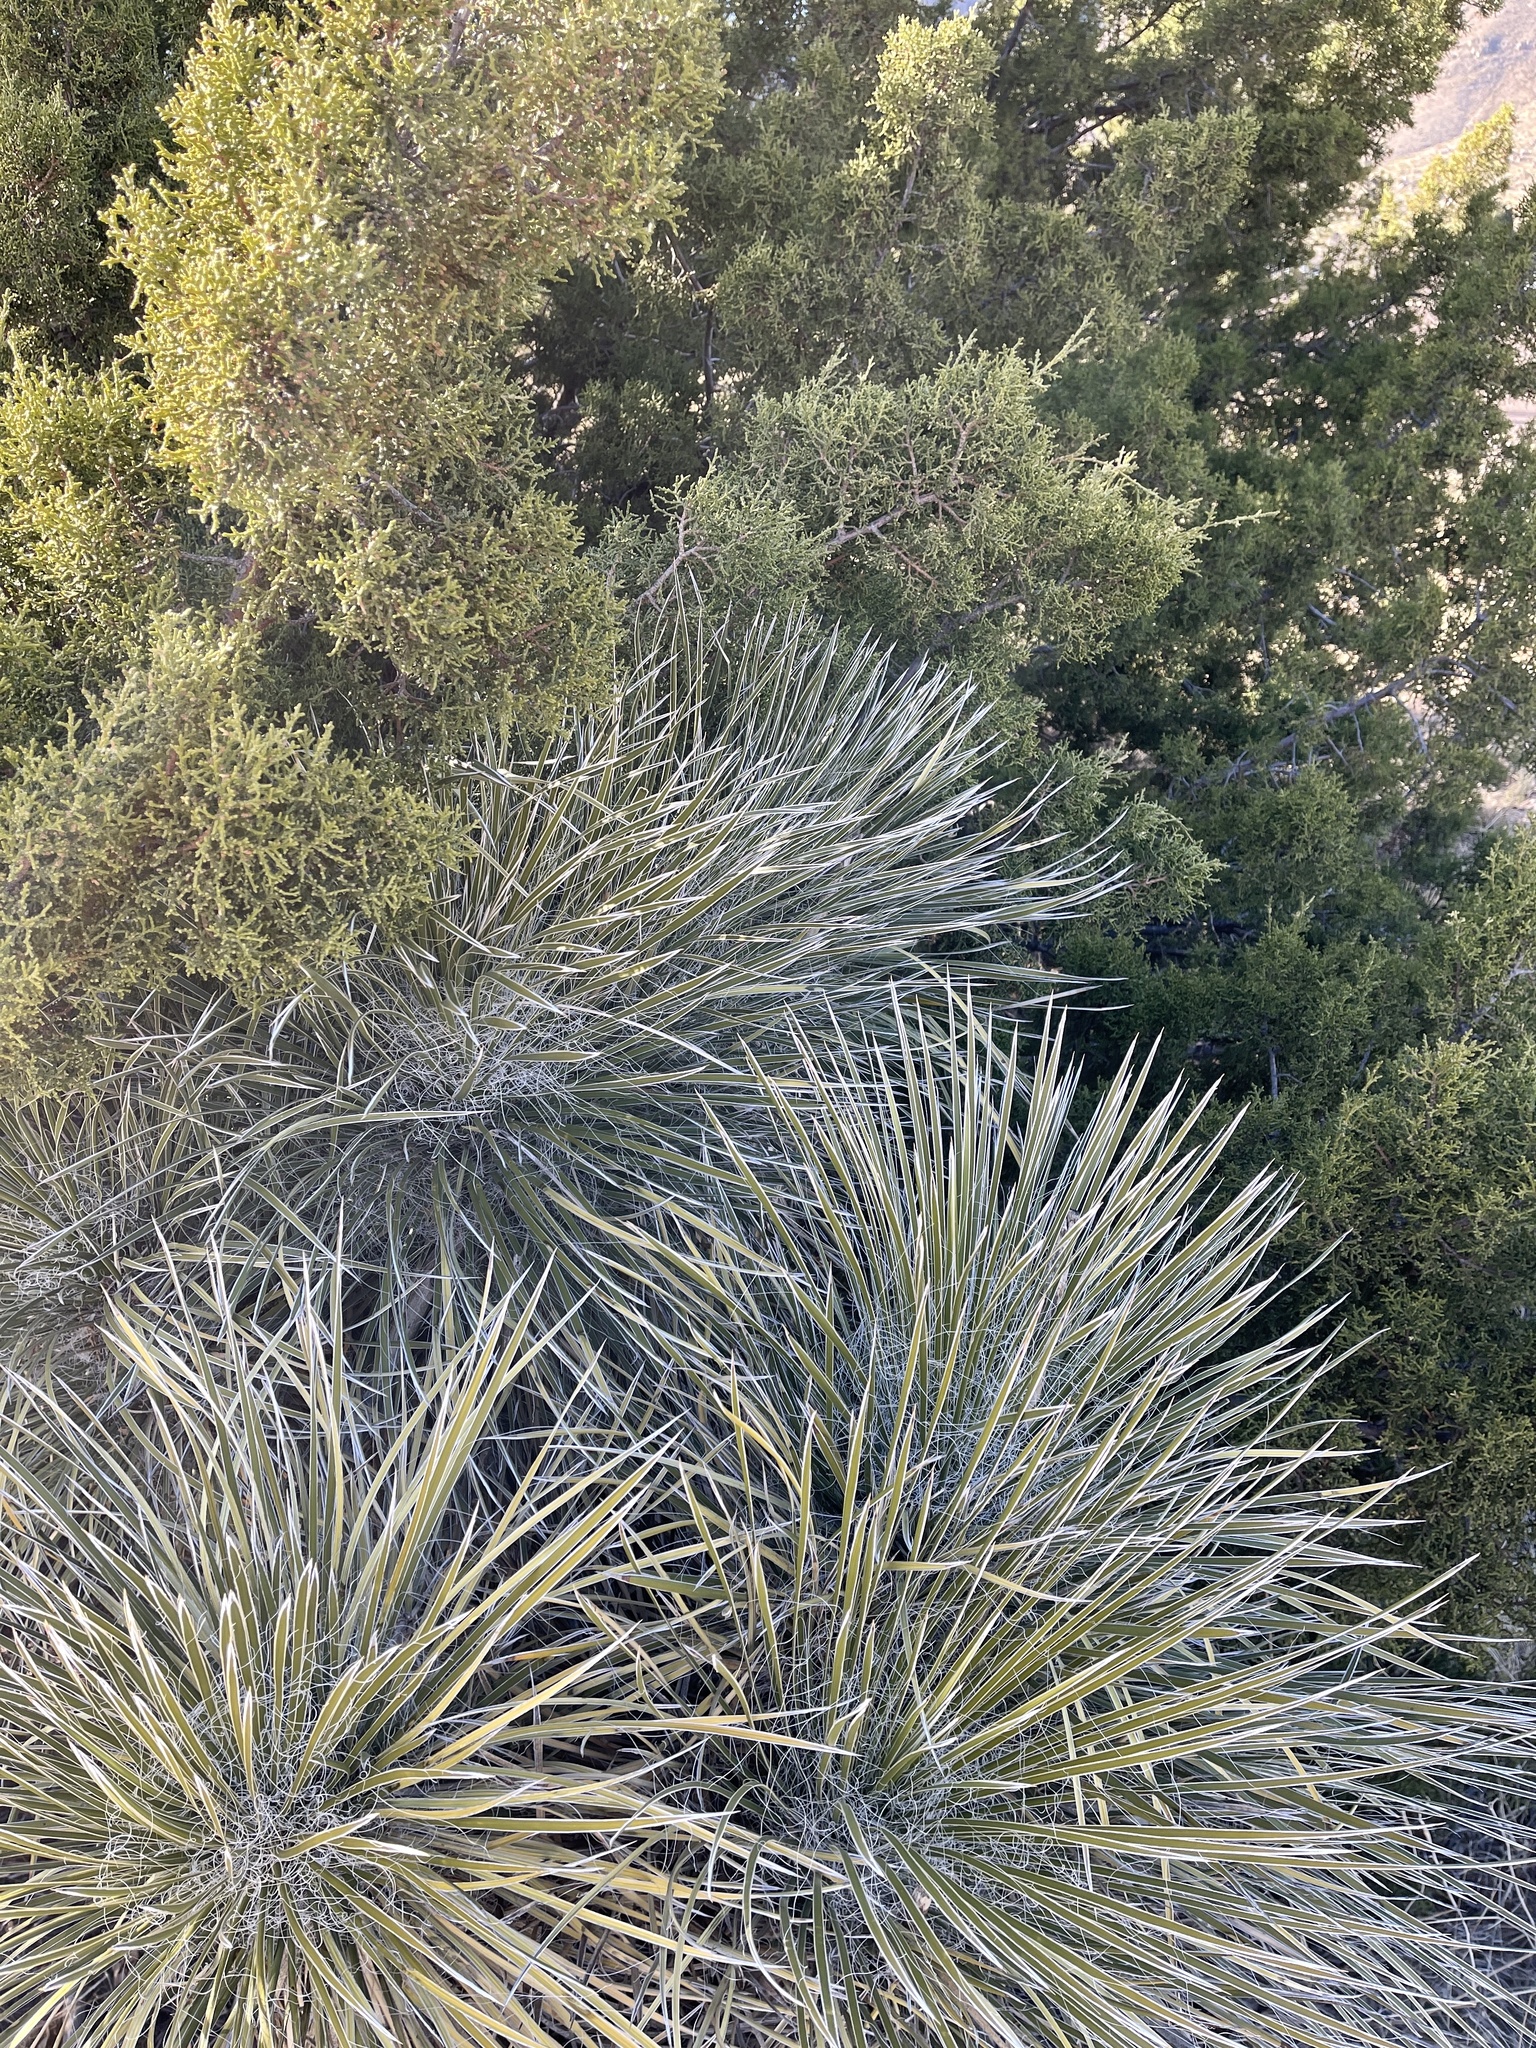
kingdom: Plantae
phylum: Tracheophyta
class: Liliopsida
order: Asparagales
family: Asparagaceae
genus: Yucca
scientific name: Yucca elata
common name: Palmella
